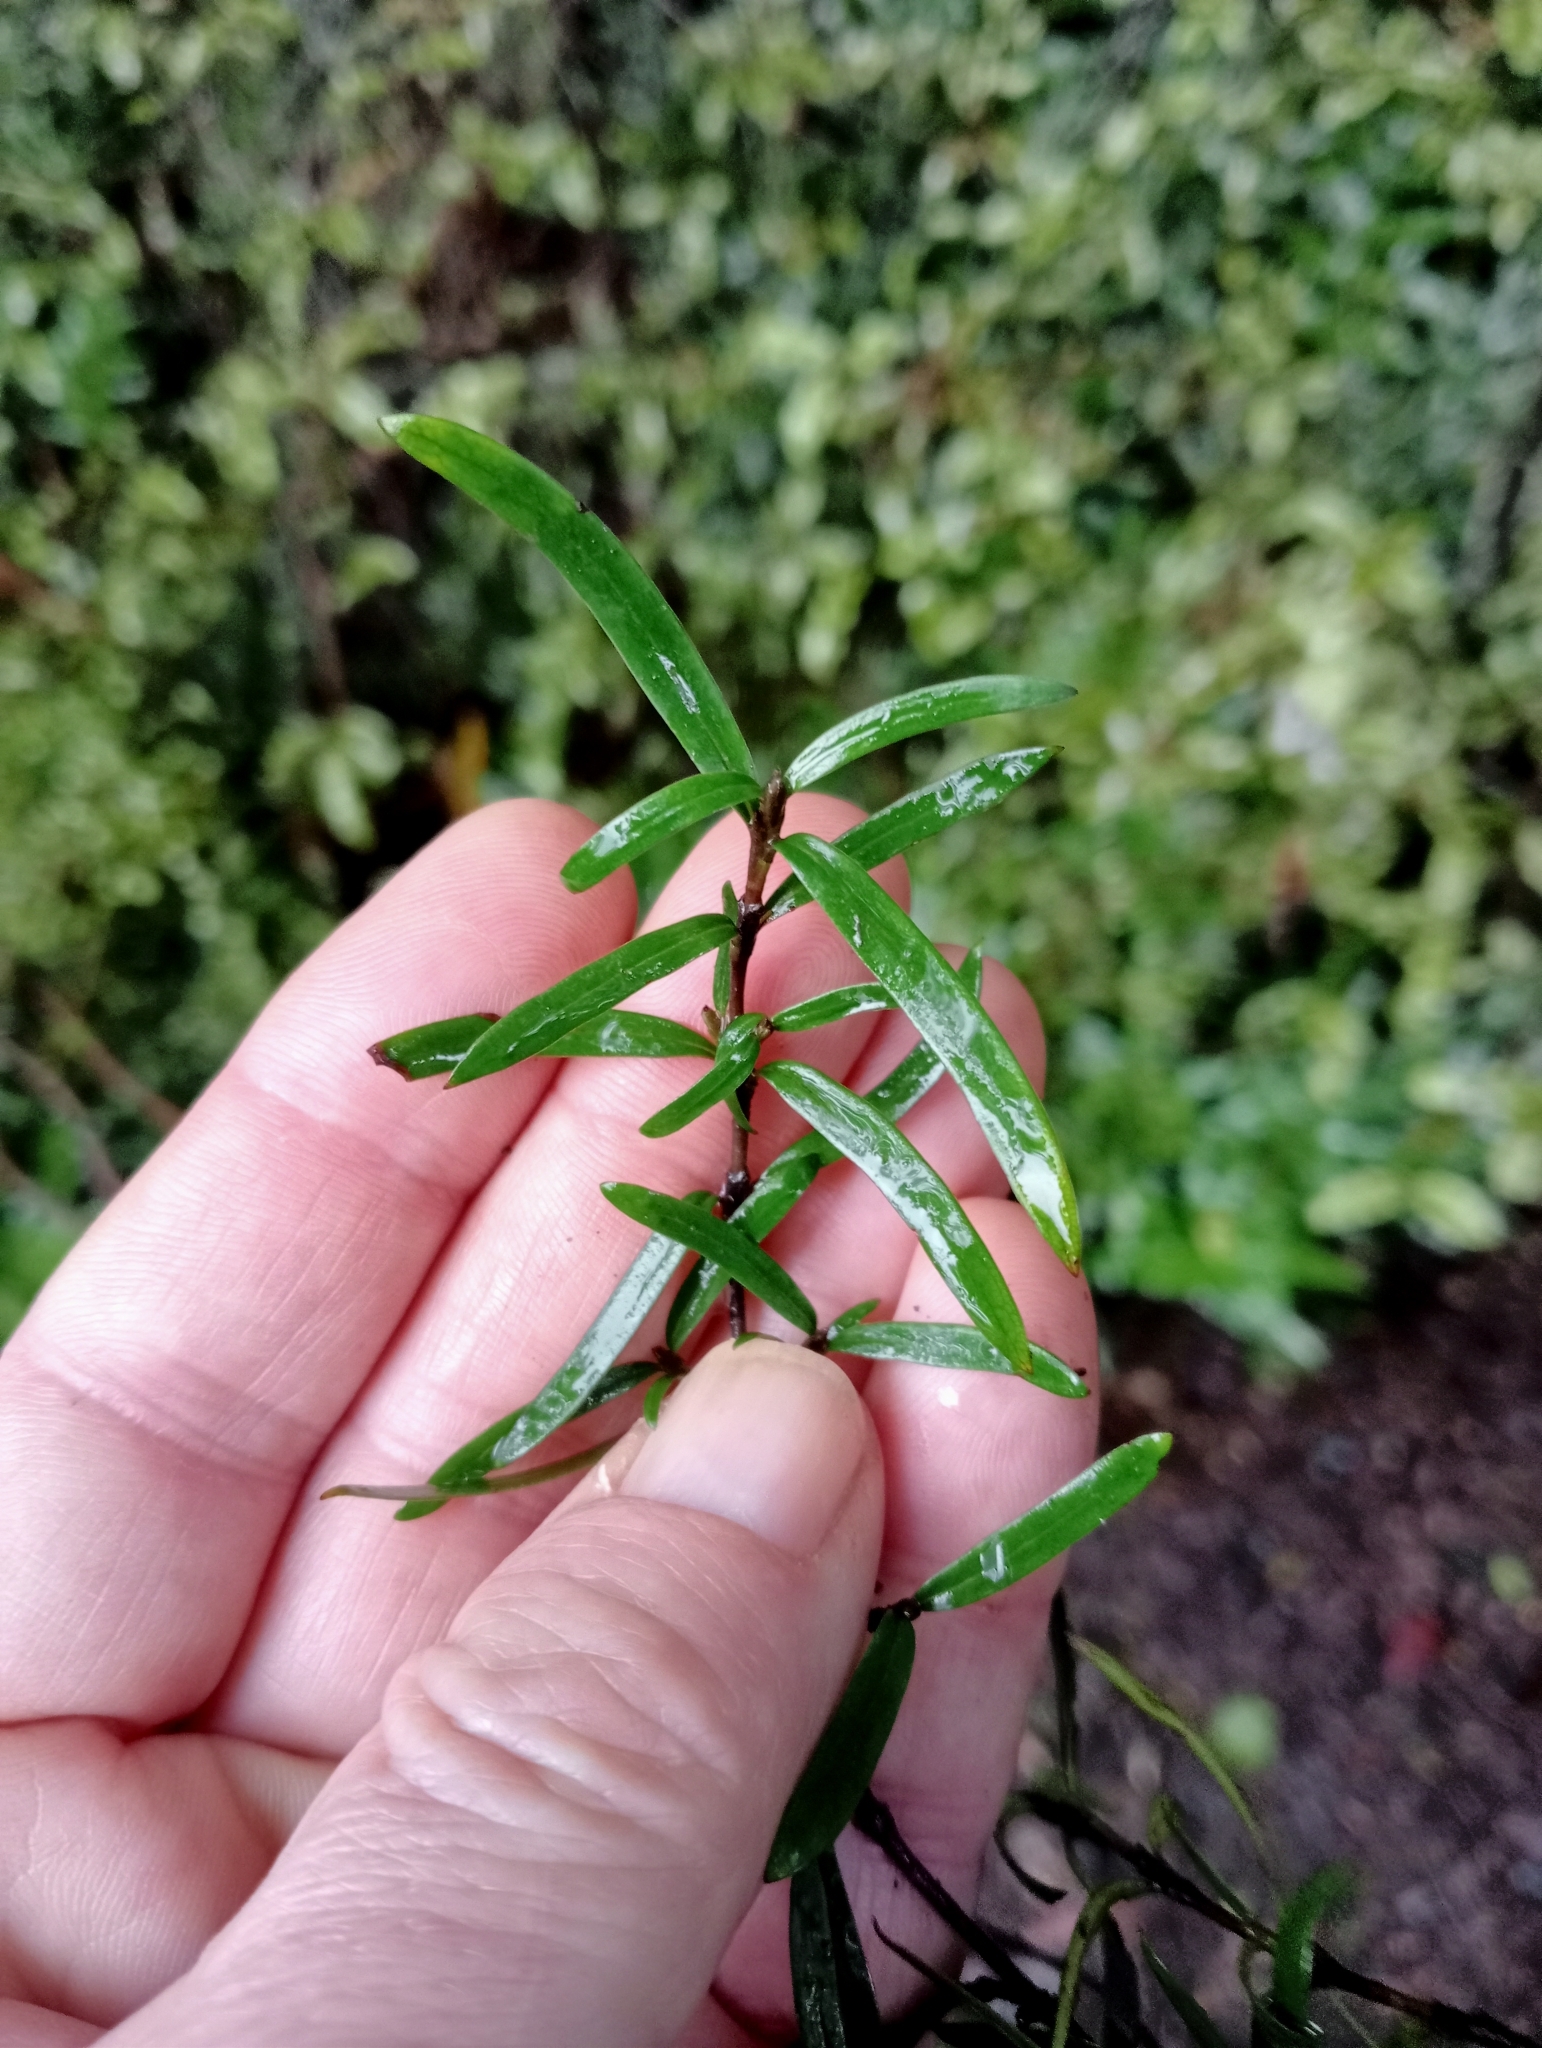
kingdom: Plantae
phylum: Tracheophyta
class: Magnoliopsida
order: Gentianales
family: Rubiaceae
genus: Coprosma
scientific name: Coprosma linariifolia
